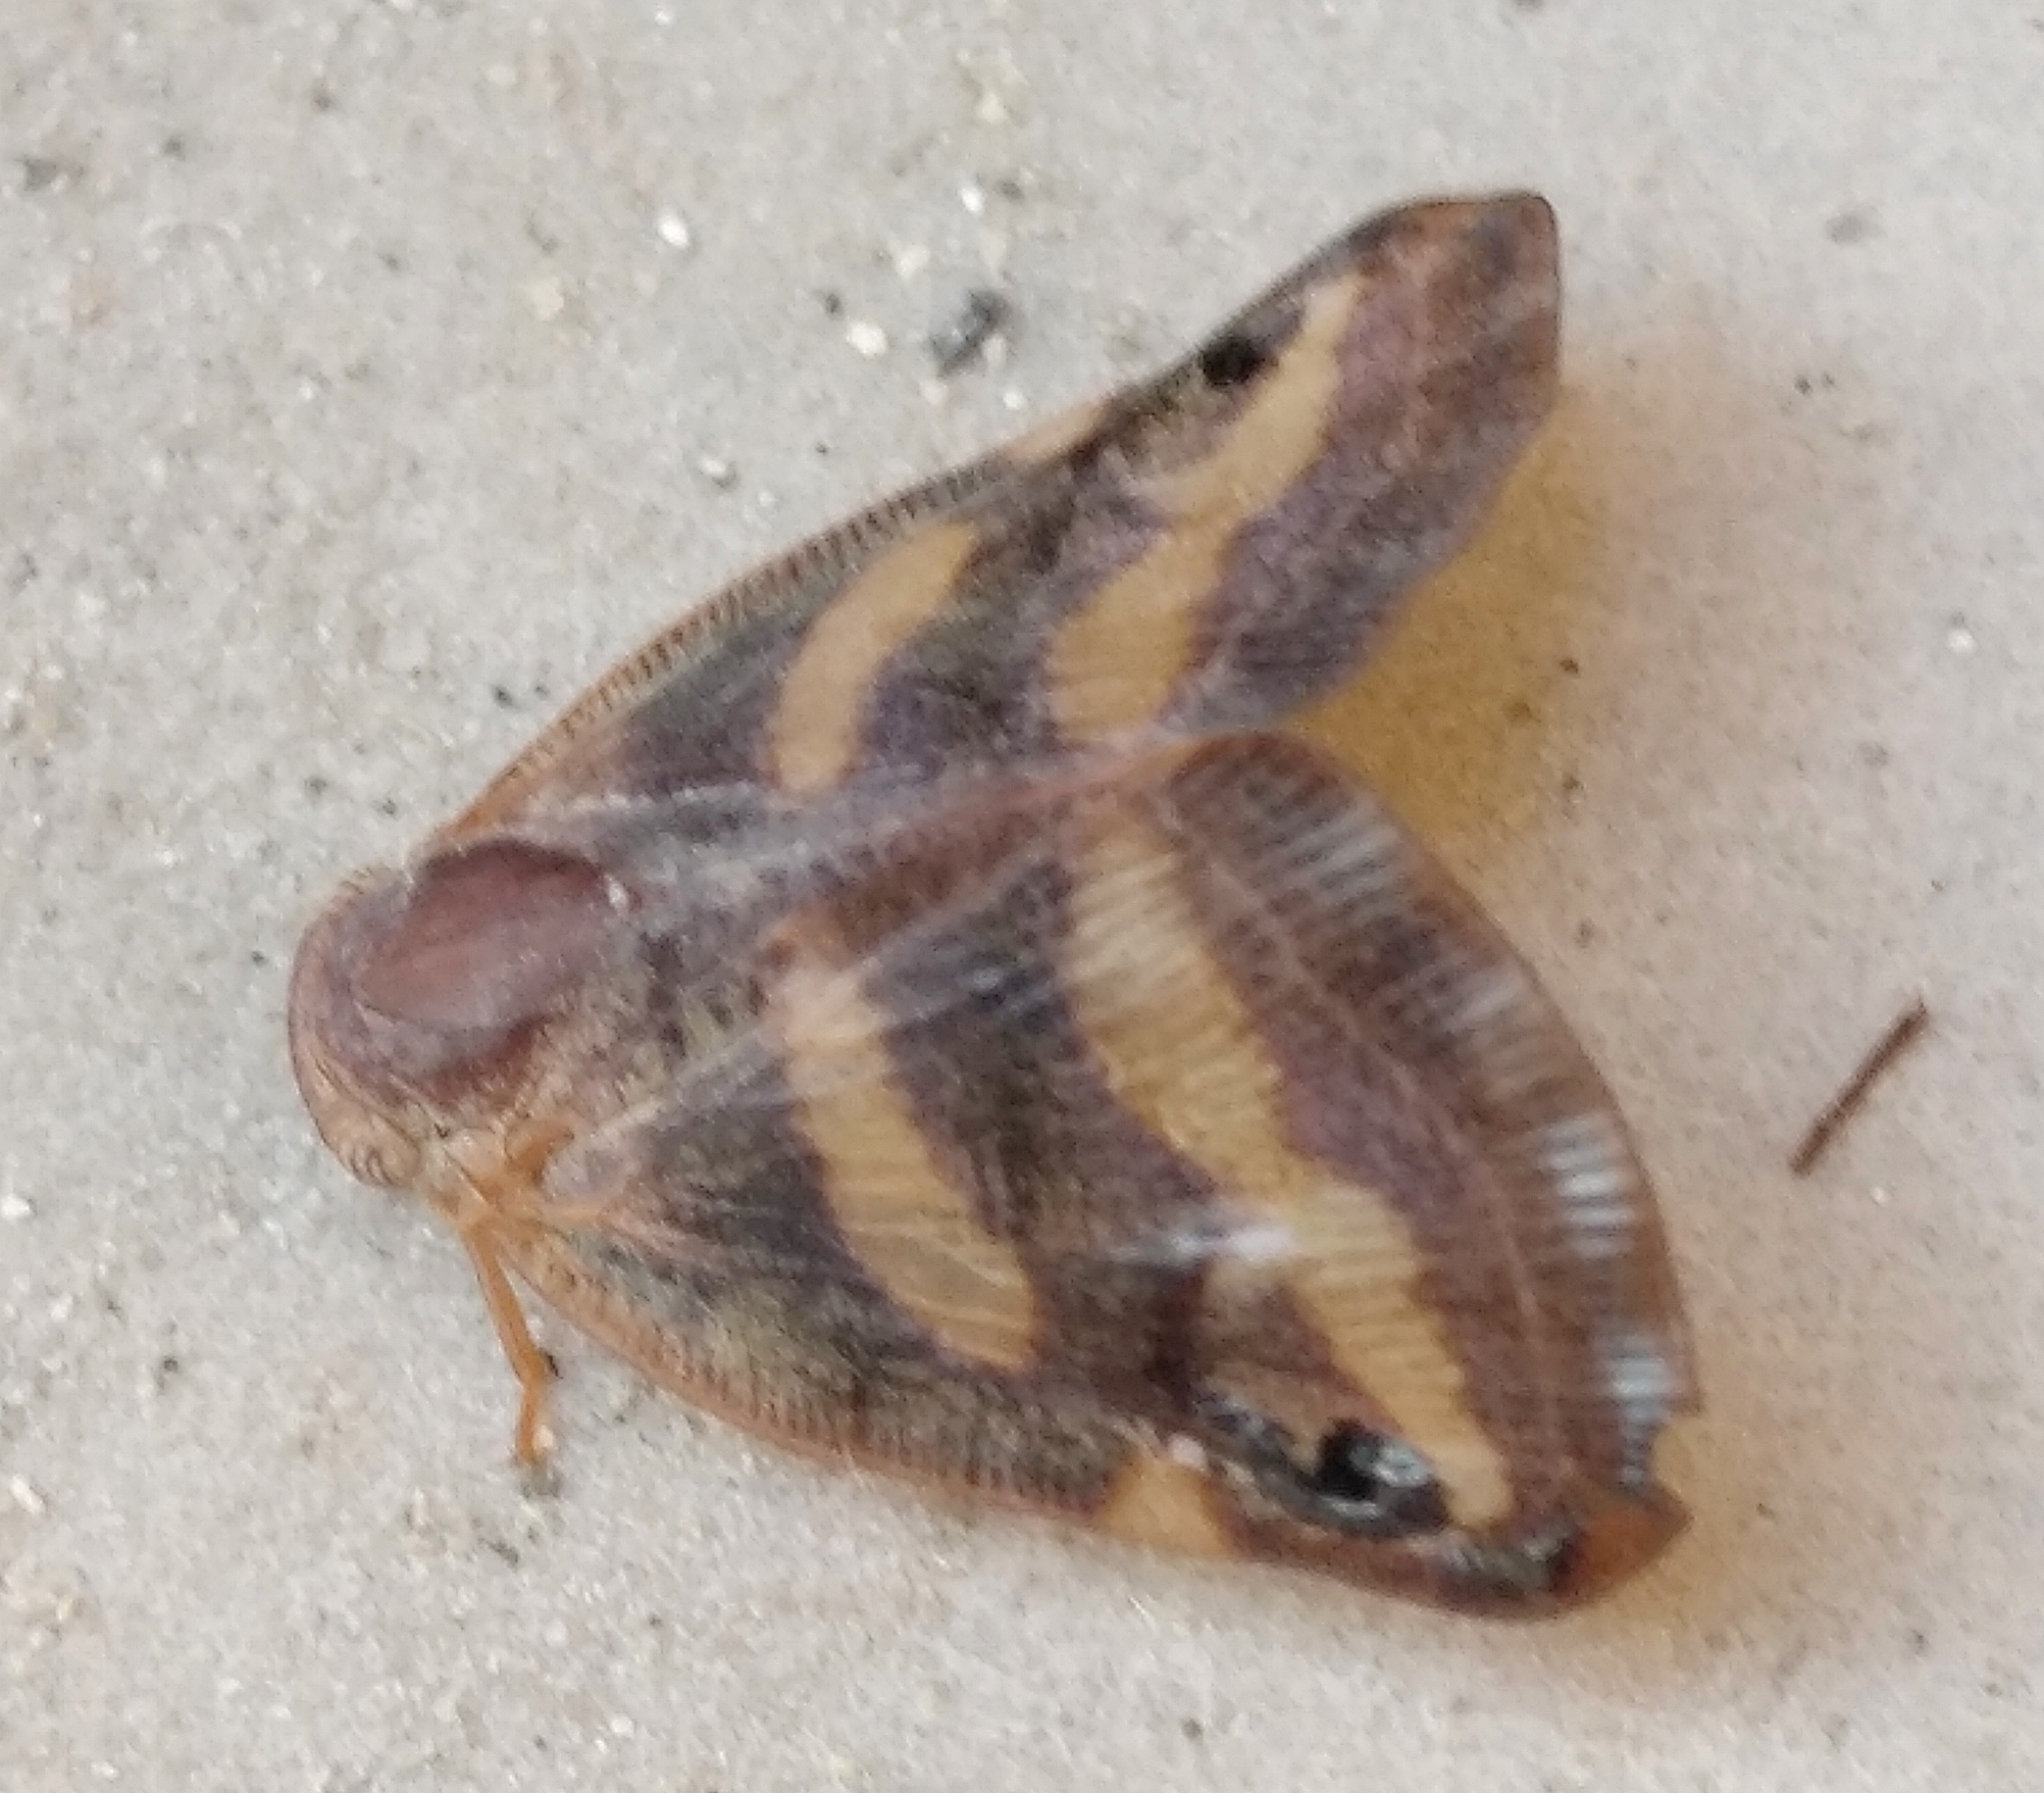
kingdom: Animalia
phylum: Arthropoda
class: Insecta
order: Hemiptera
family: Ricaniidae
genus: Orosanga
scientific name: Orosanga japonica
